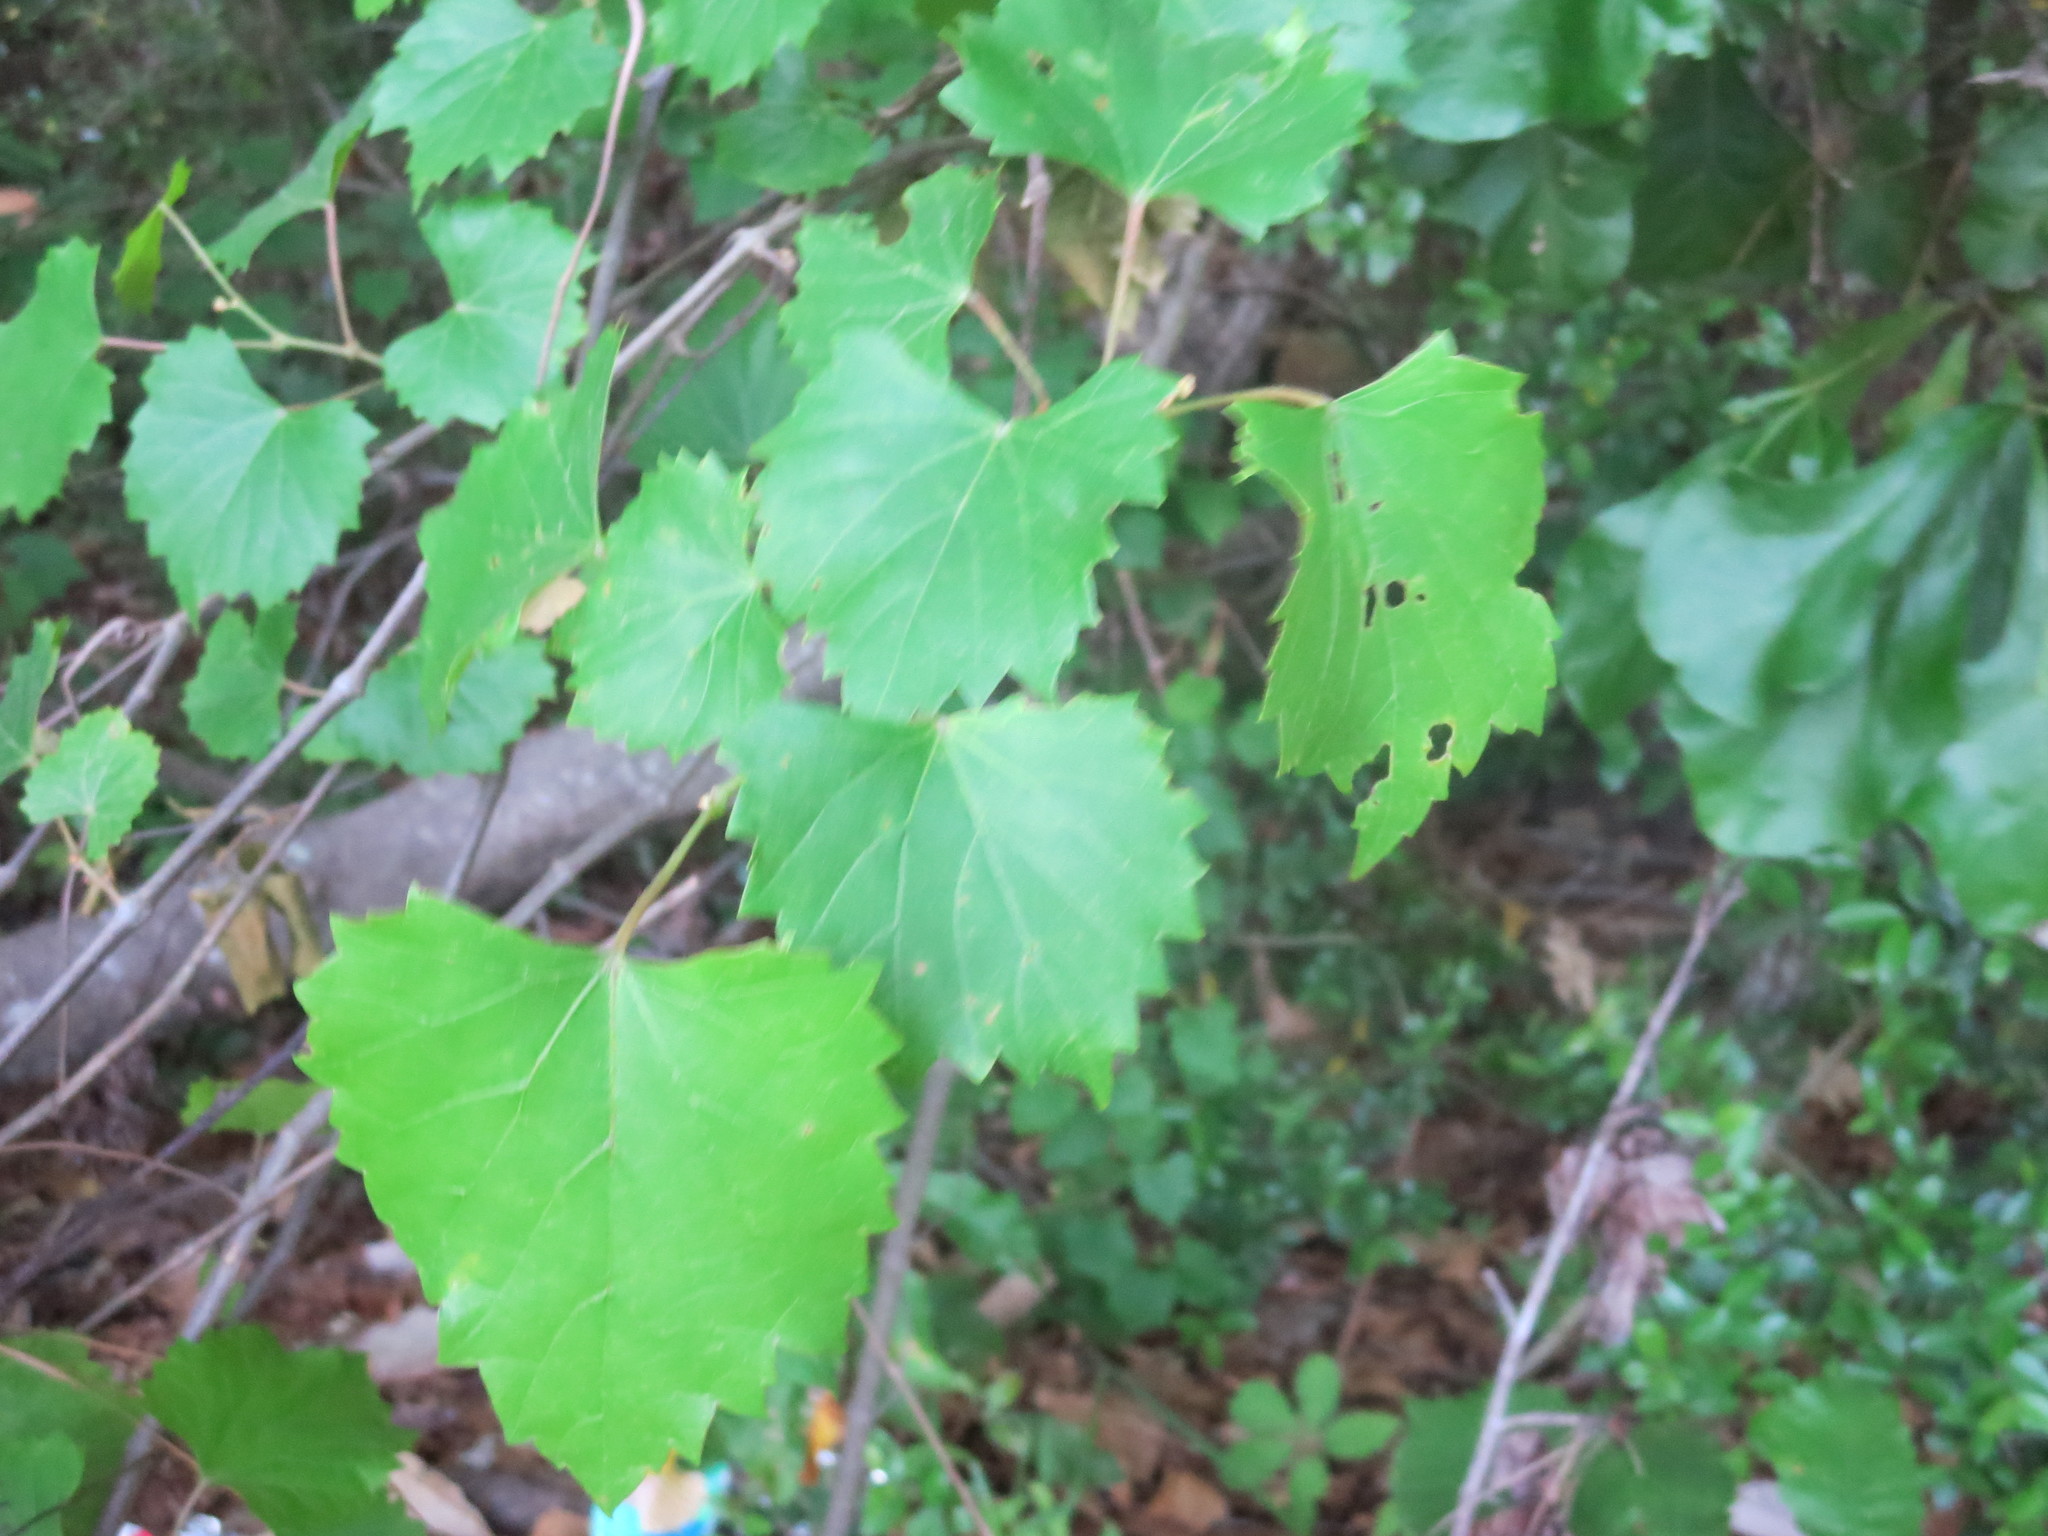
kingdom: Plantae
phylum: Tracheophyta
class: Magnoliopsida
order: Vitales
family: Vitaceae
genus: Vitis
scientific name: Vitis rotundifolia
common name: Muscadine grape
